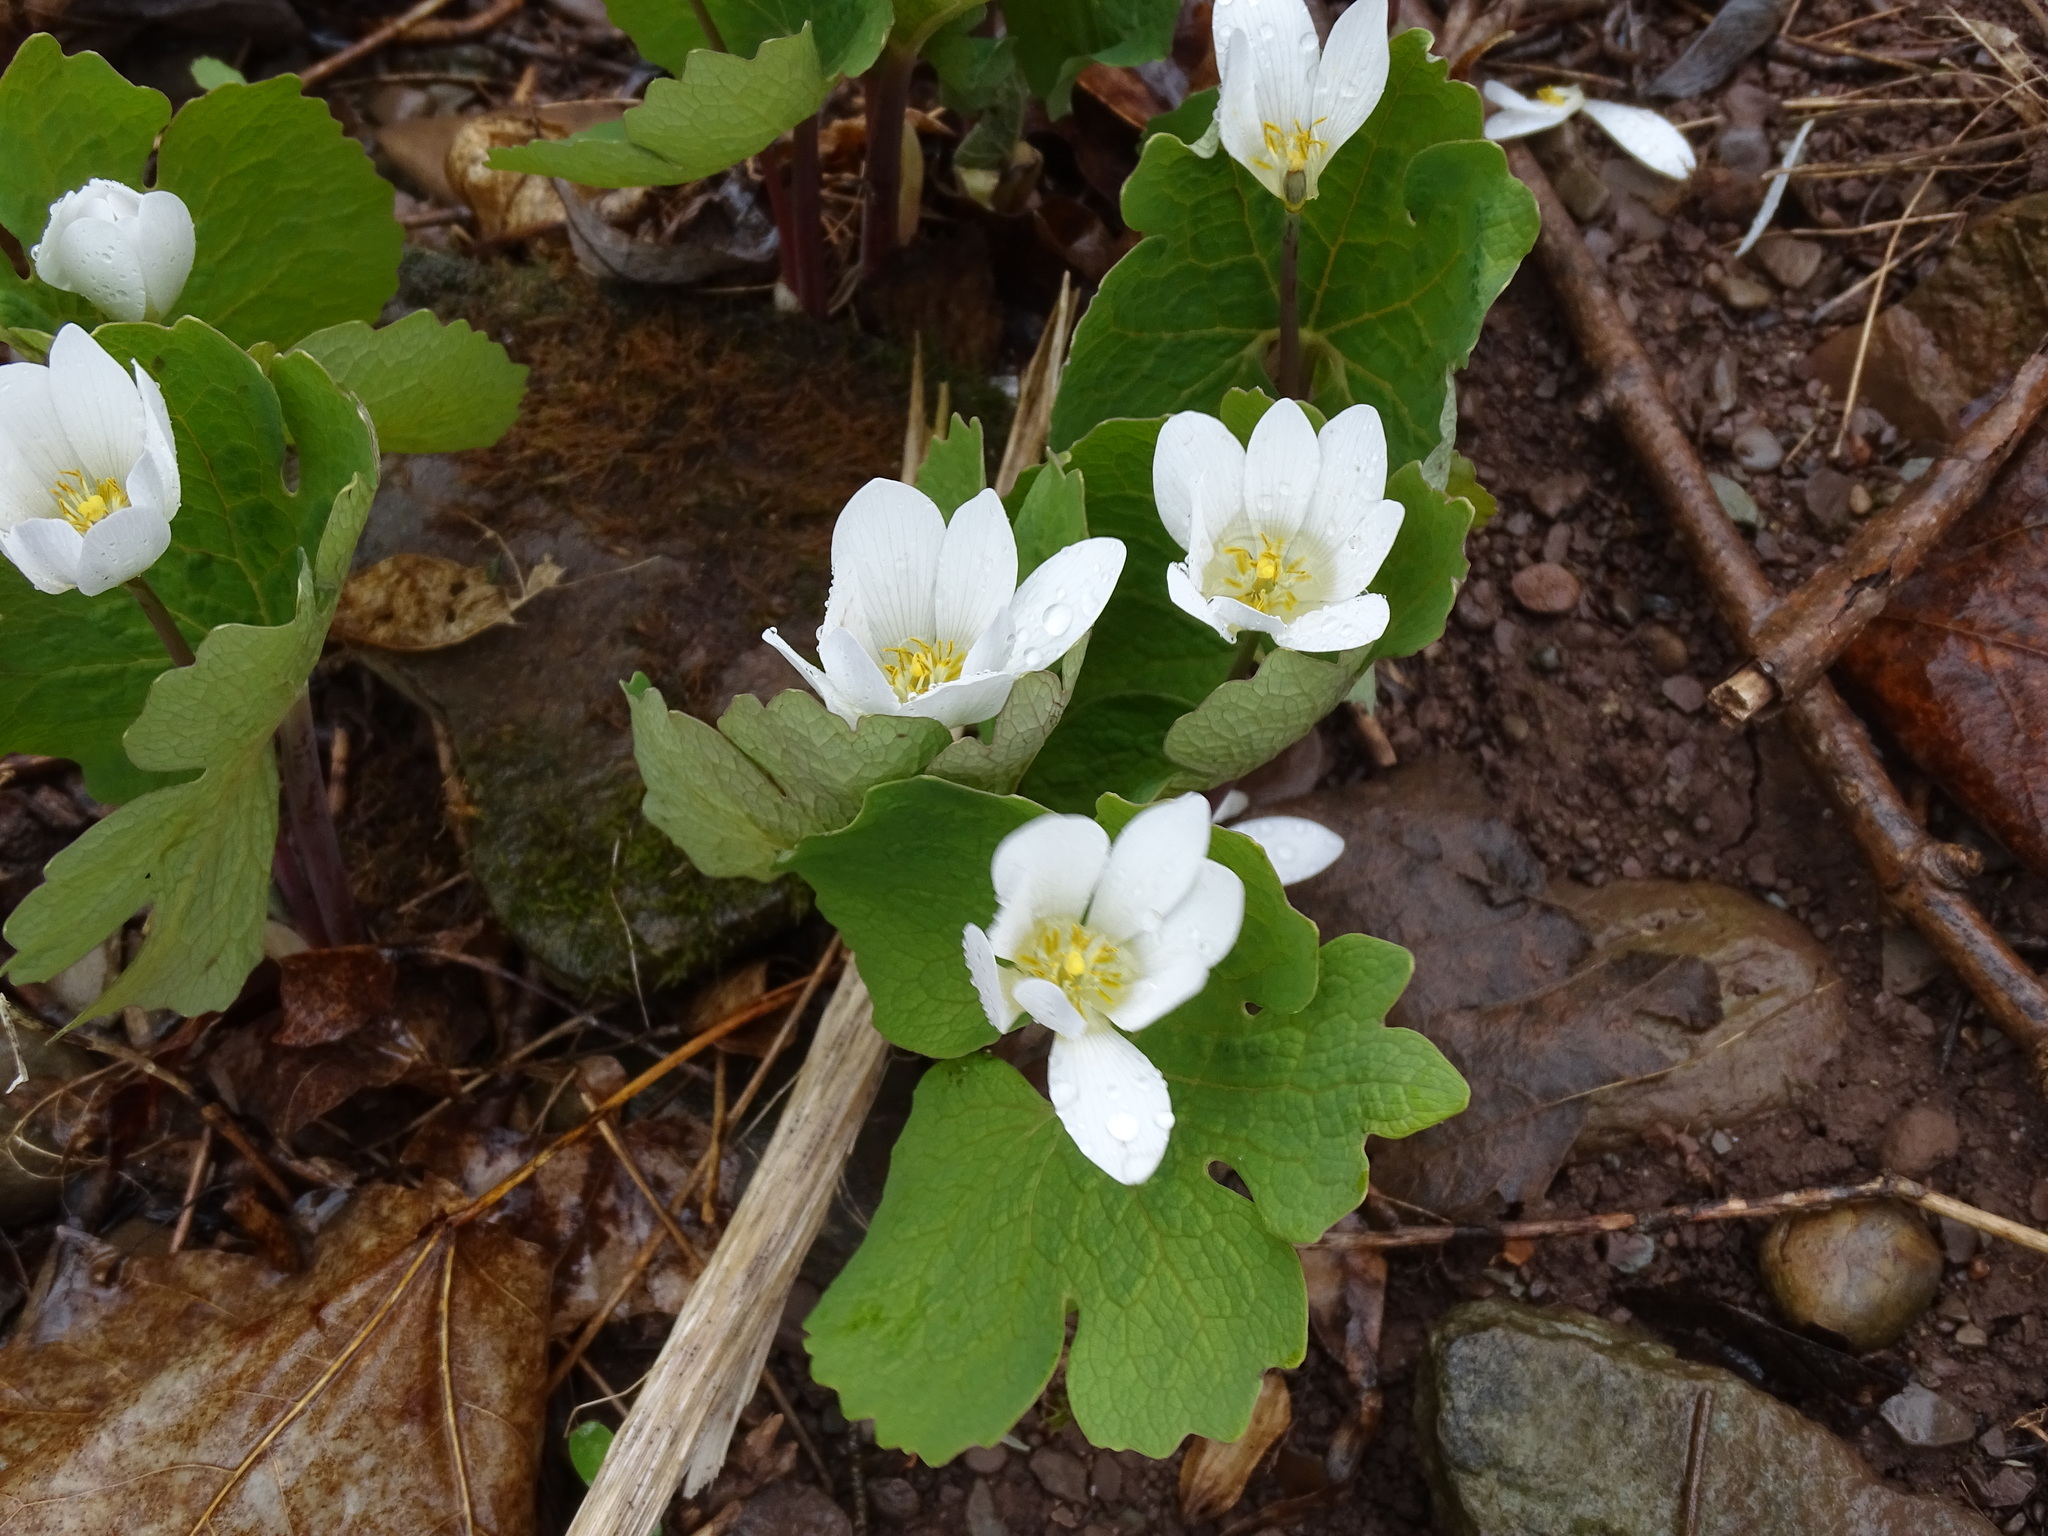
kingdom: Plantae
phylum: Tracheophyta
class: Magnoliopsida
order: Ranunculales
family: Papaveraceae
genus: Sanguinaria
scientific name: Sanguinaria canadensis
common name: Bloodroot
